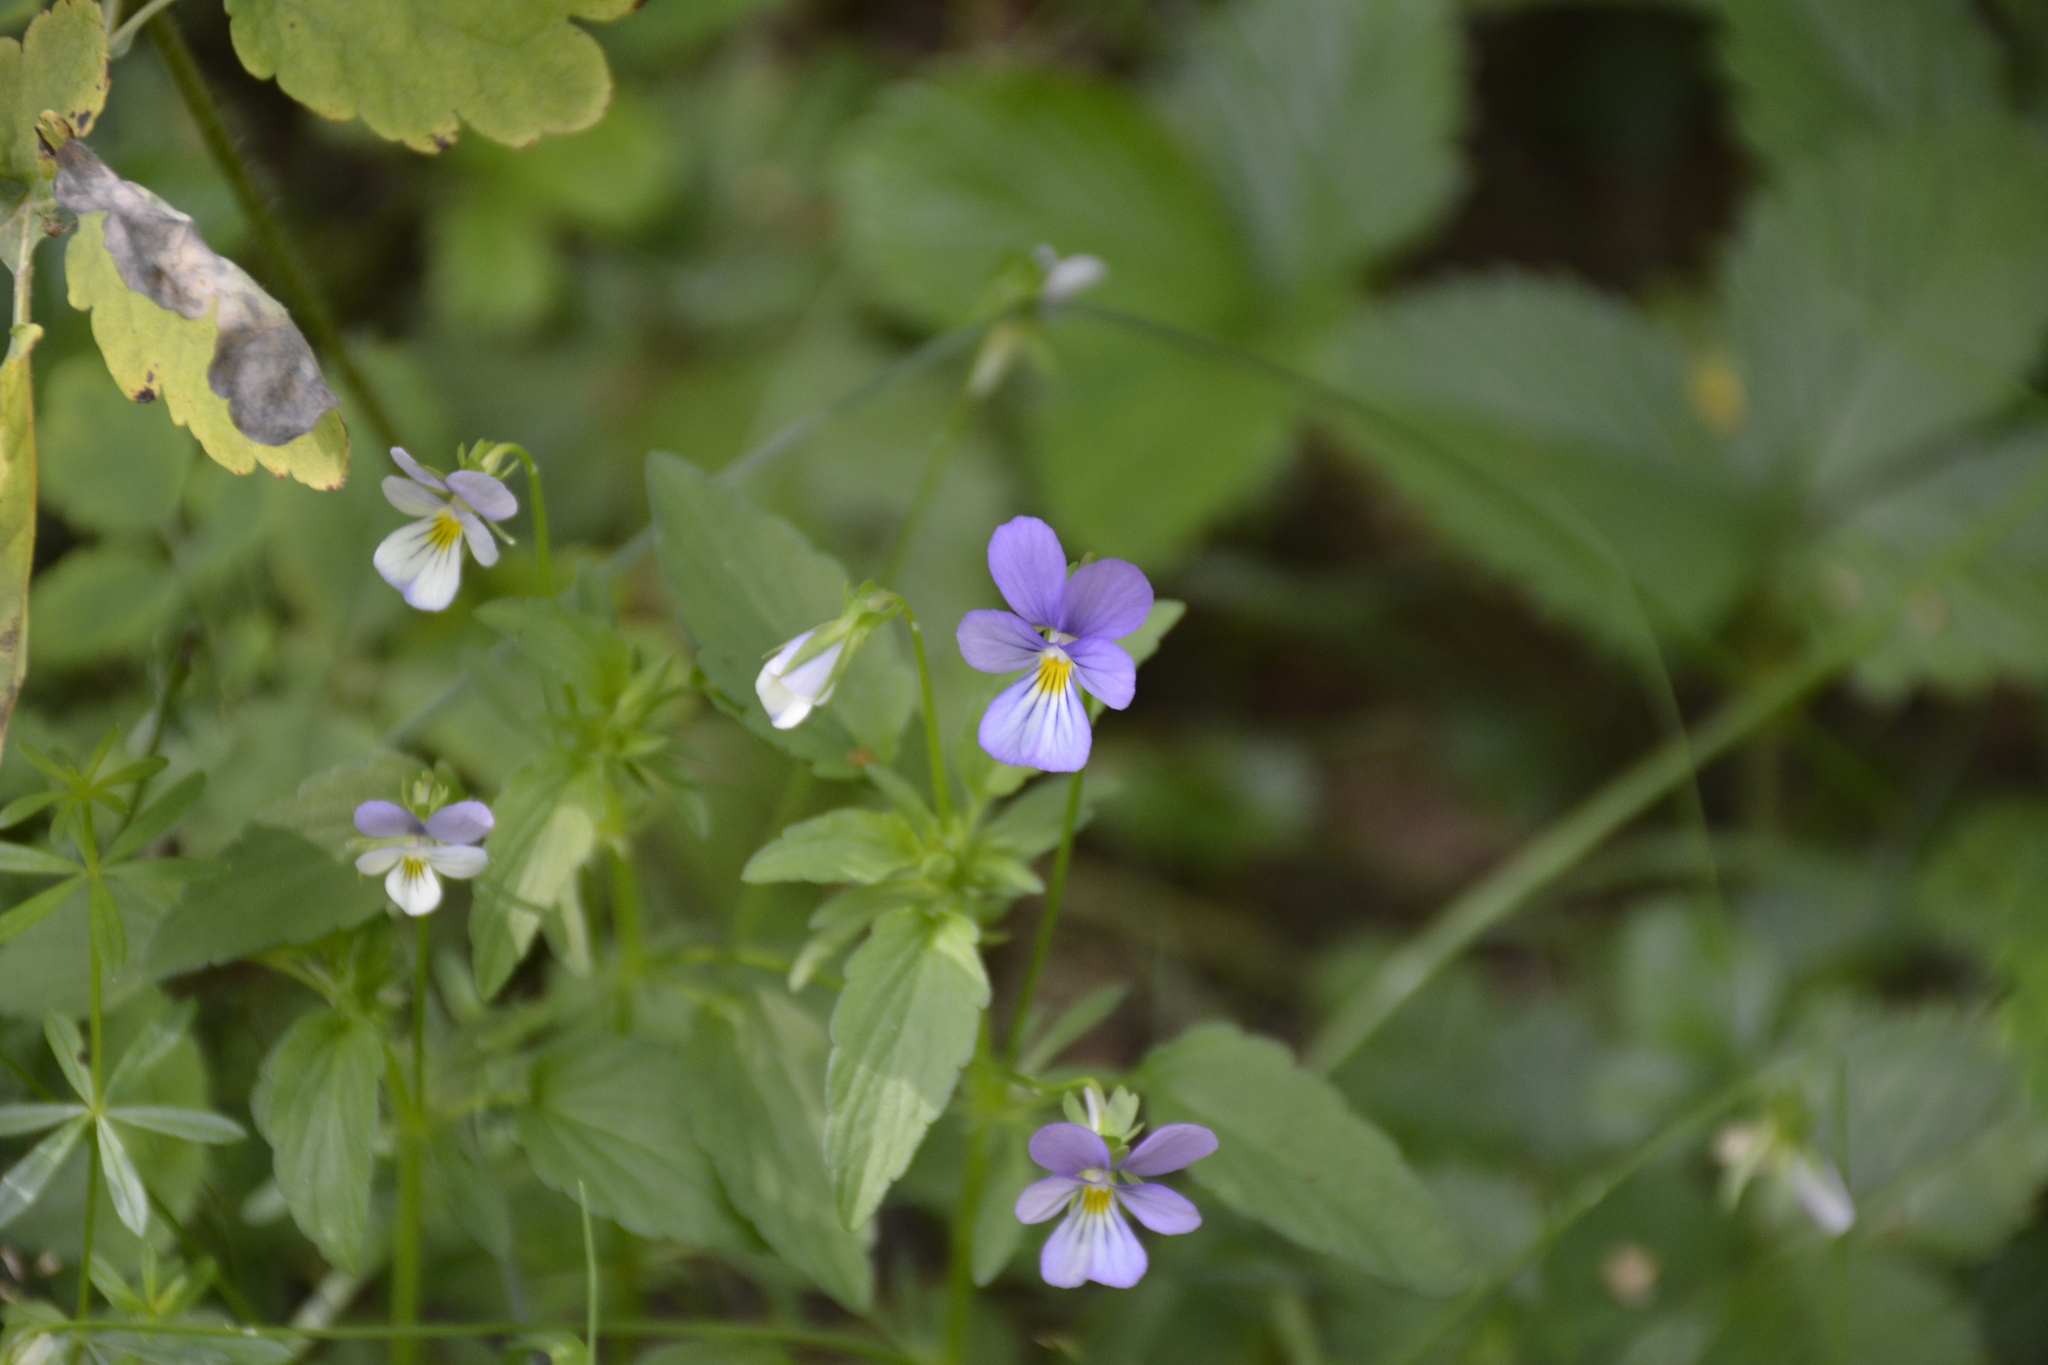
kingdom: Plantae
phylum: Tracheophyta
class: Magnoliopsida
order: Malpighiales
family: Violaceae
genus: Viola
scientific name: Viola tricolor
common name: Pansy
